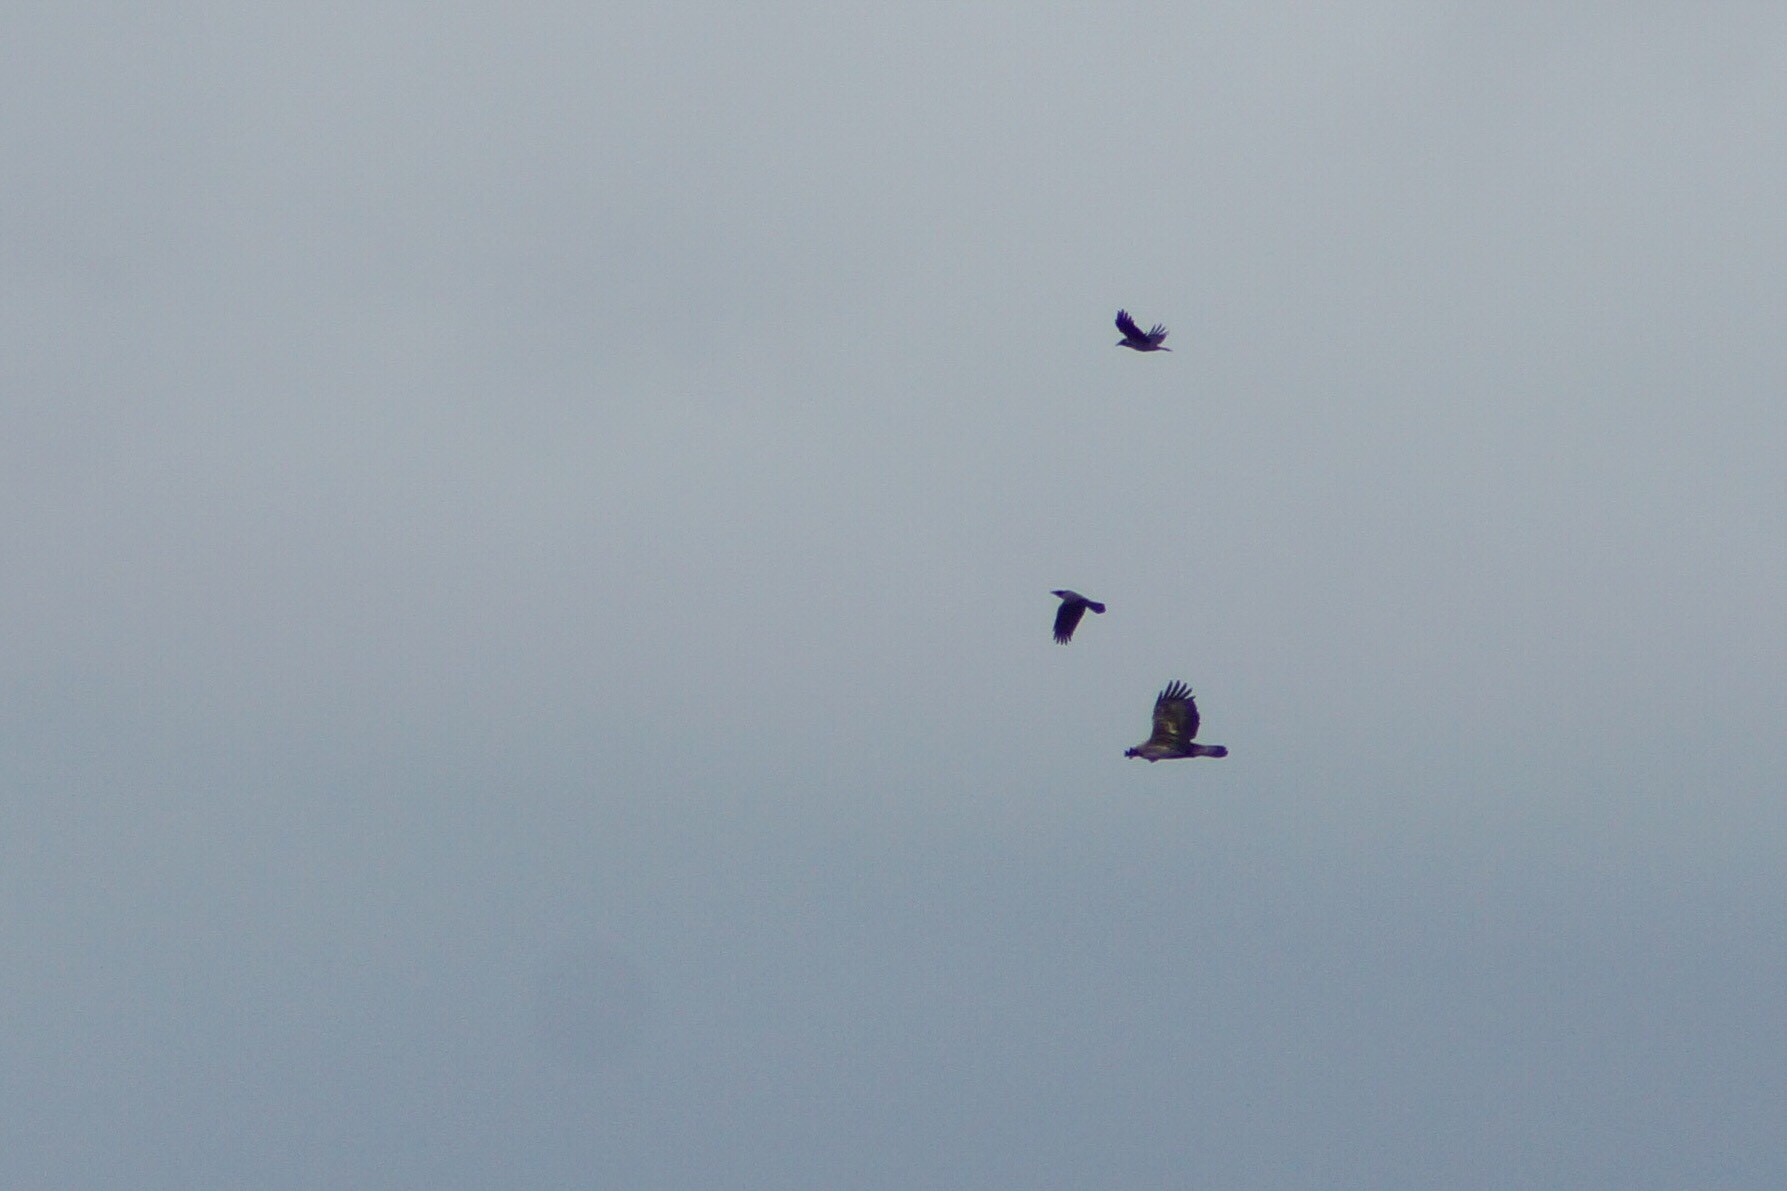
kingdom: Animalia
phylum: Chordata
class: Aves
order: Accipitriformes
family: Accipitridae
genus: Aquila
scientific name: Aquila chrysaetos
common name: Golden eagle
